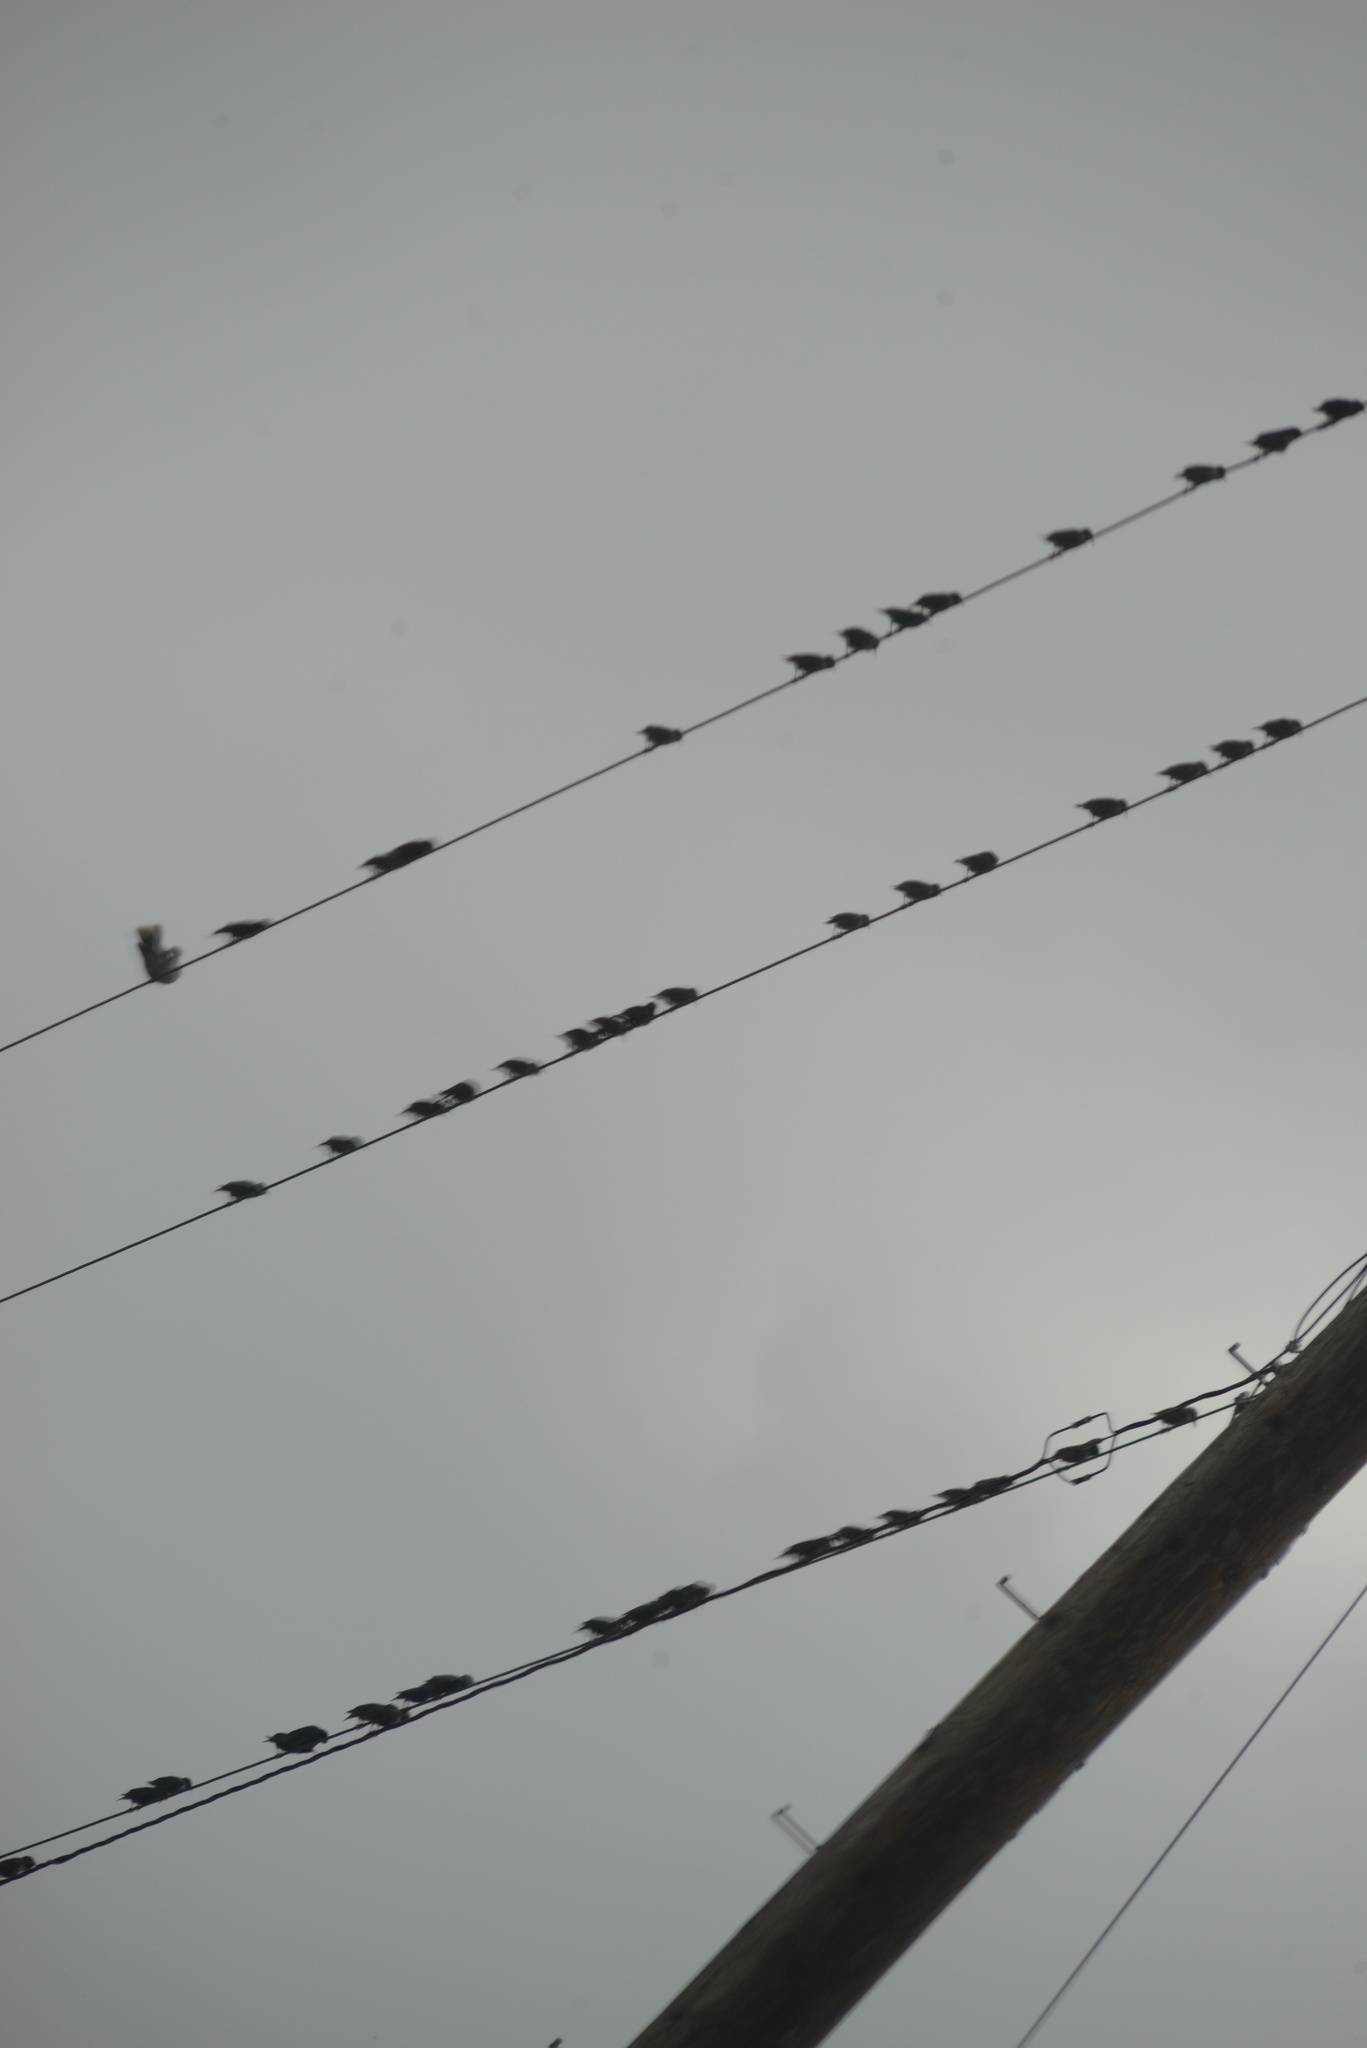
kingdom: Animalia
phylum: Chordata
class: Aves
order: Passeriformes
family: Sturnidae
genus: Sturnus
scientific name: Sturnus vulgaris
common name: Common starling
